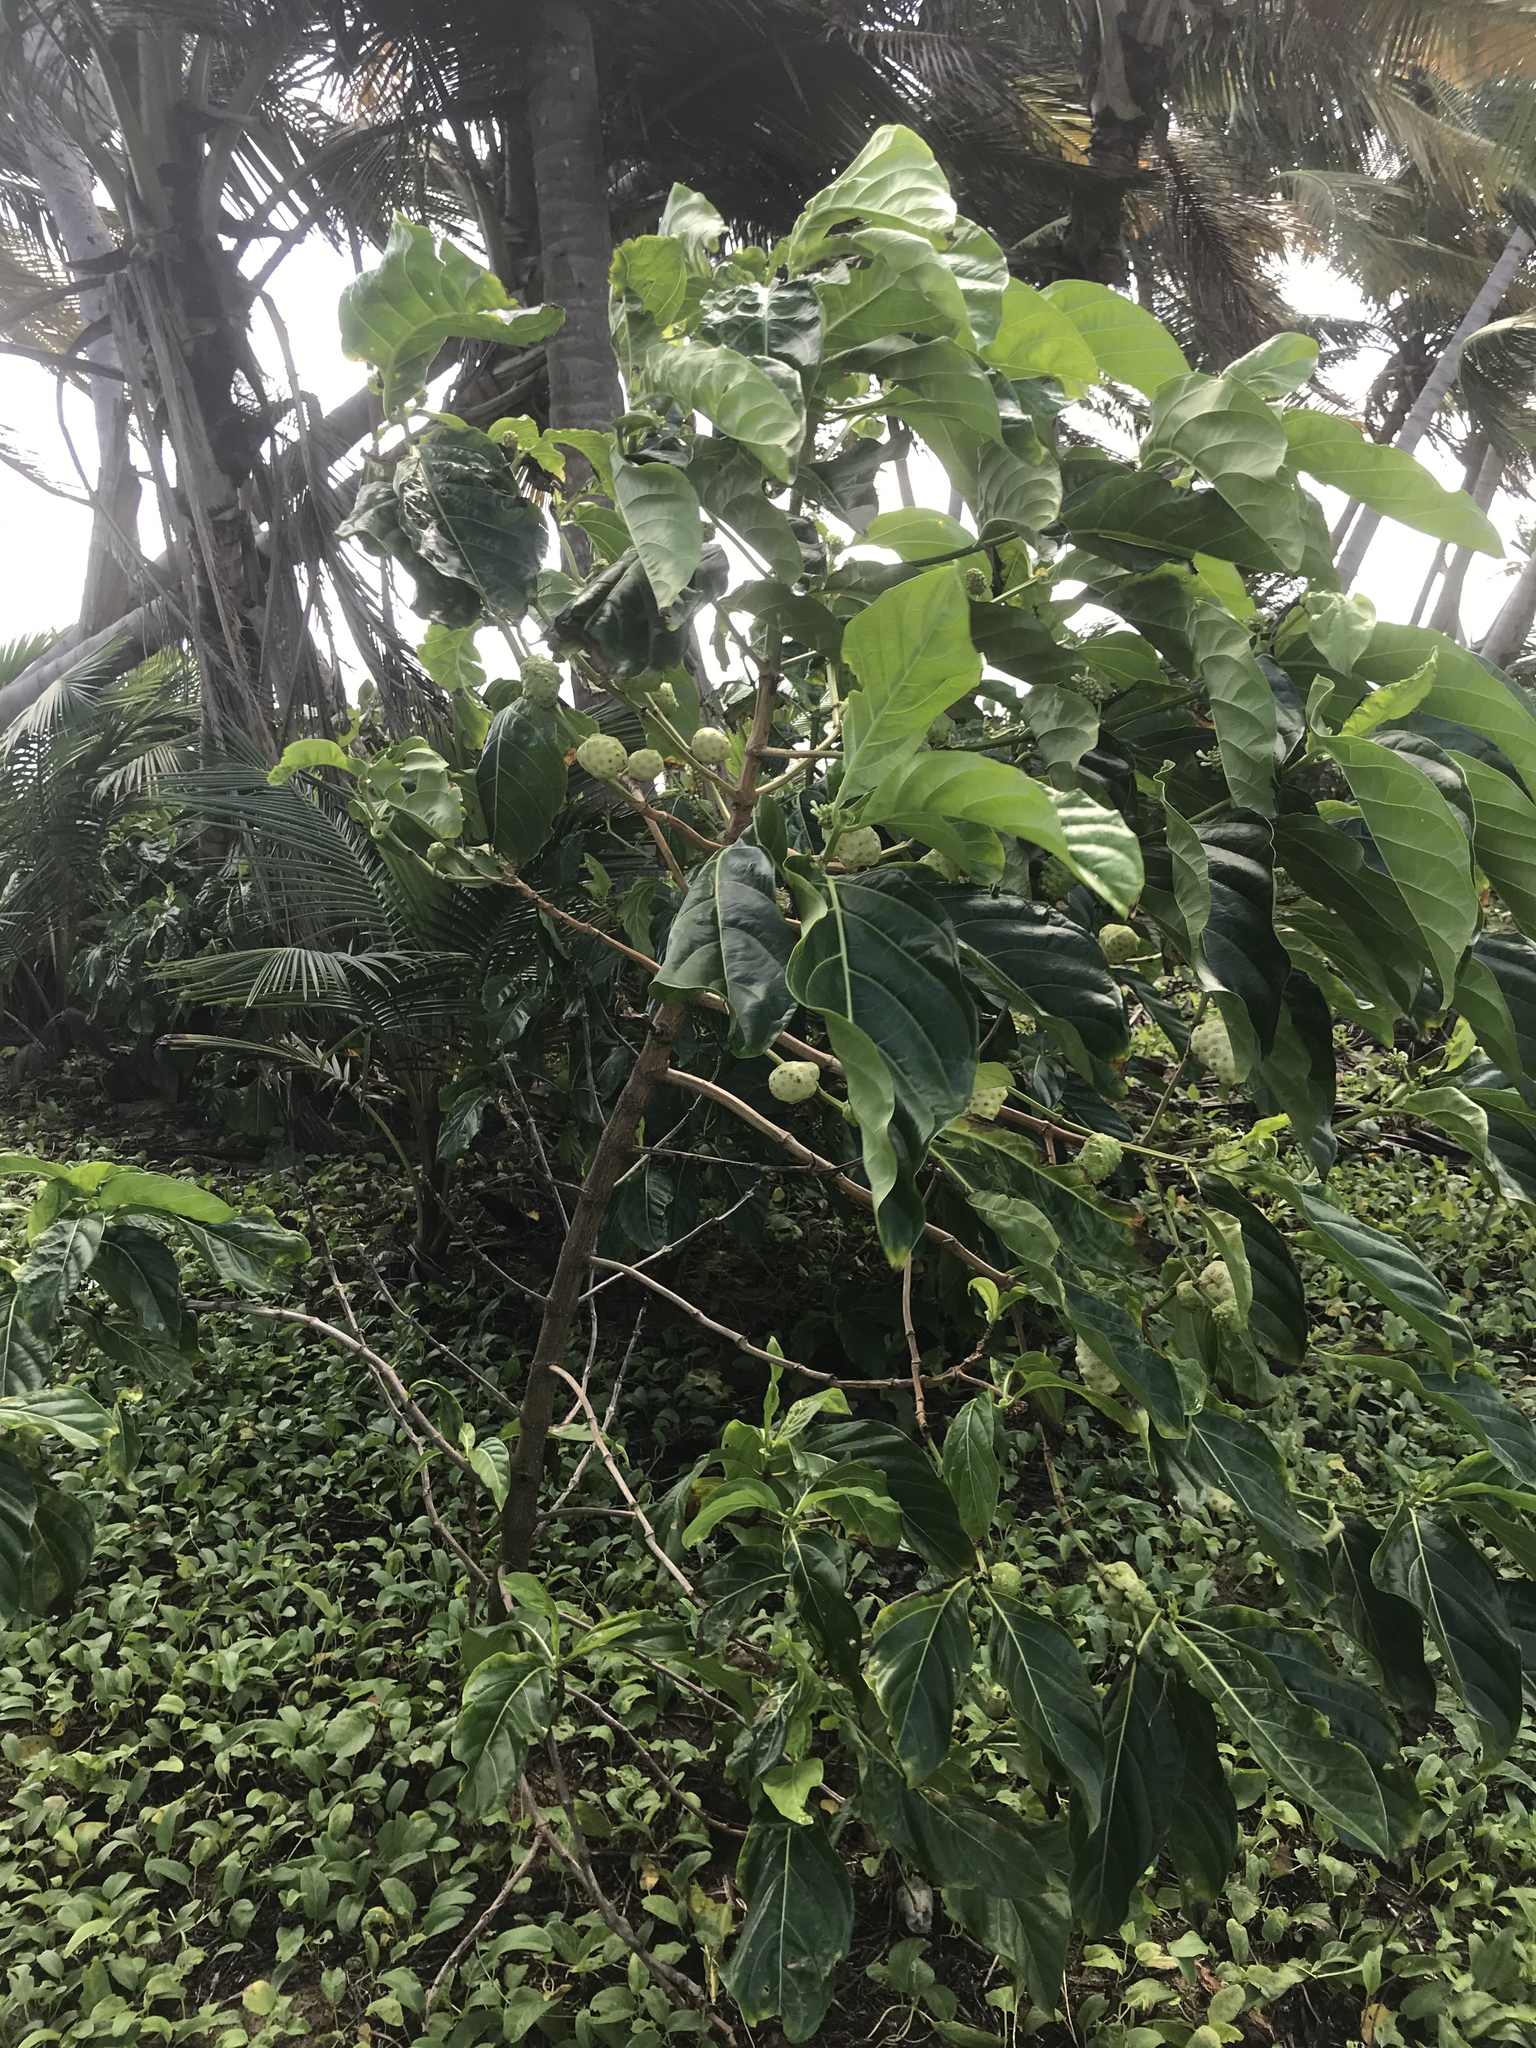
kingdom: Plantae
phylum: Tracheophyta
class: Magnoliopsida
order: Gentianales
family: Rubiaceae
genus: Morinda
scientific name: Morinda citrifolia
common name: Indian-mulberry
